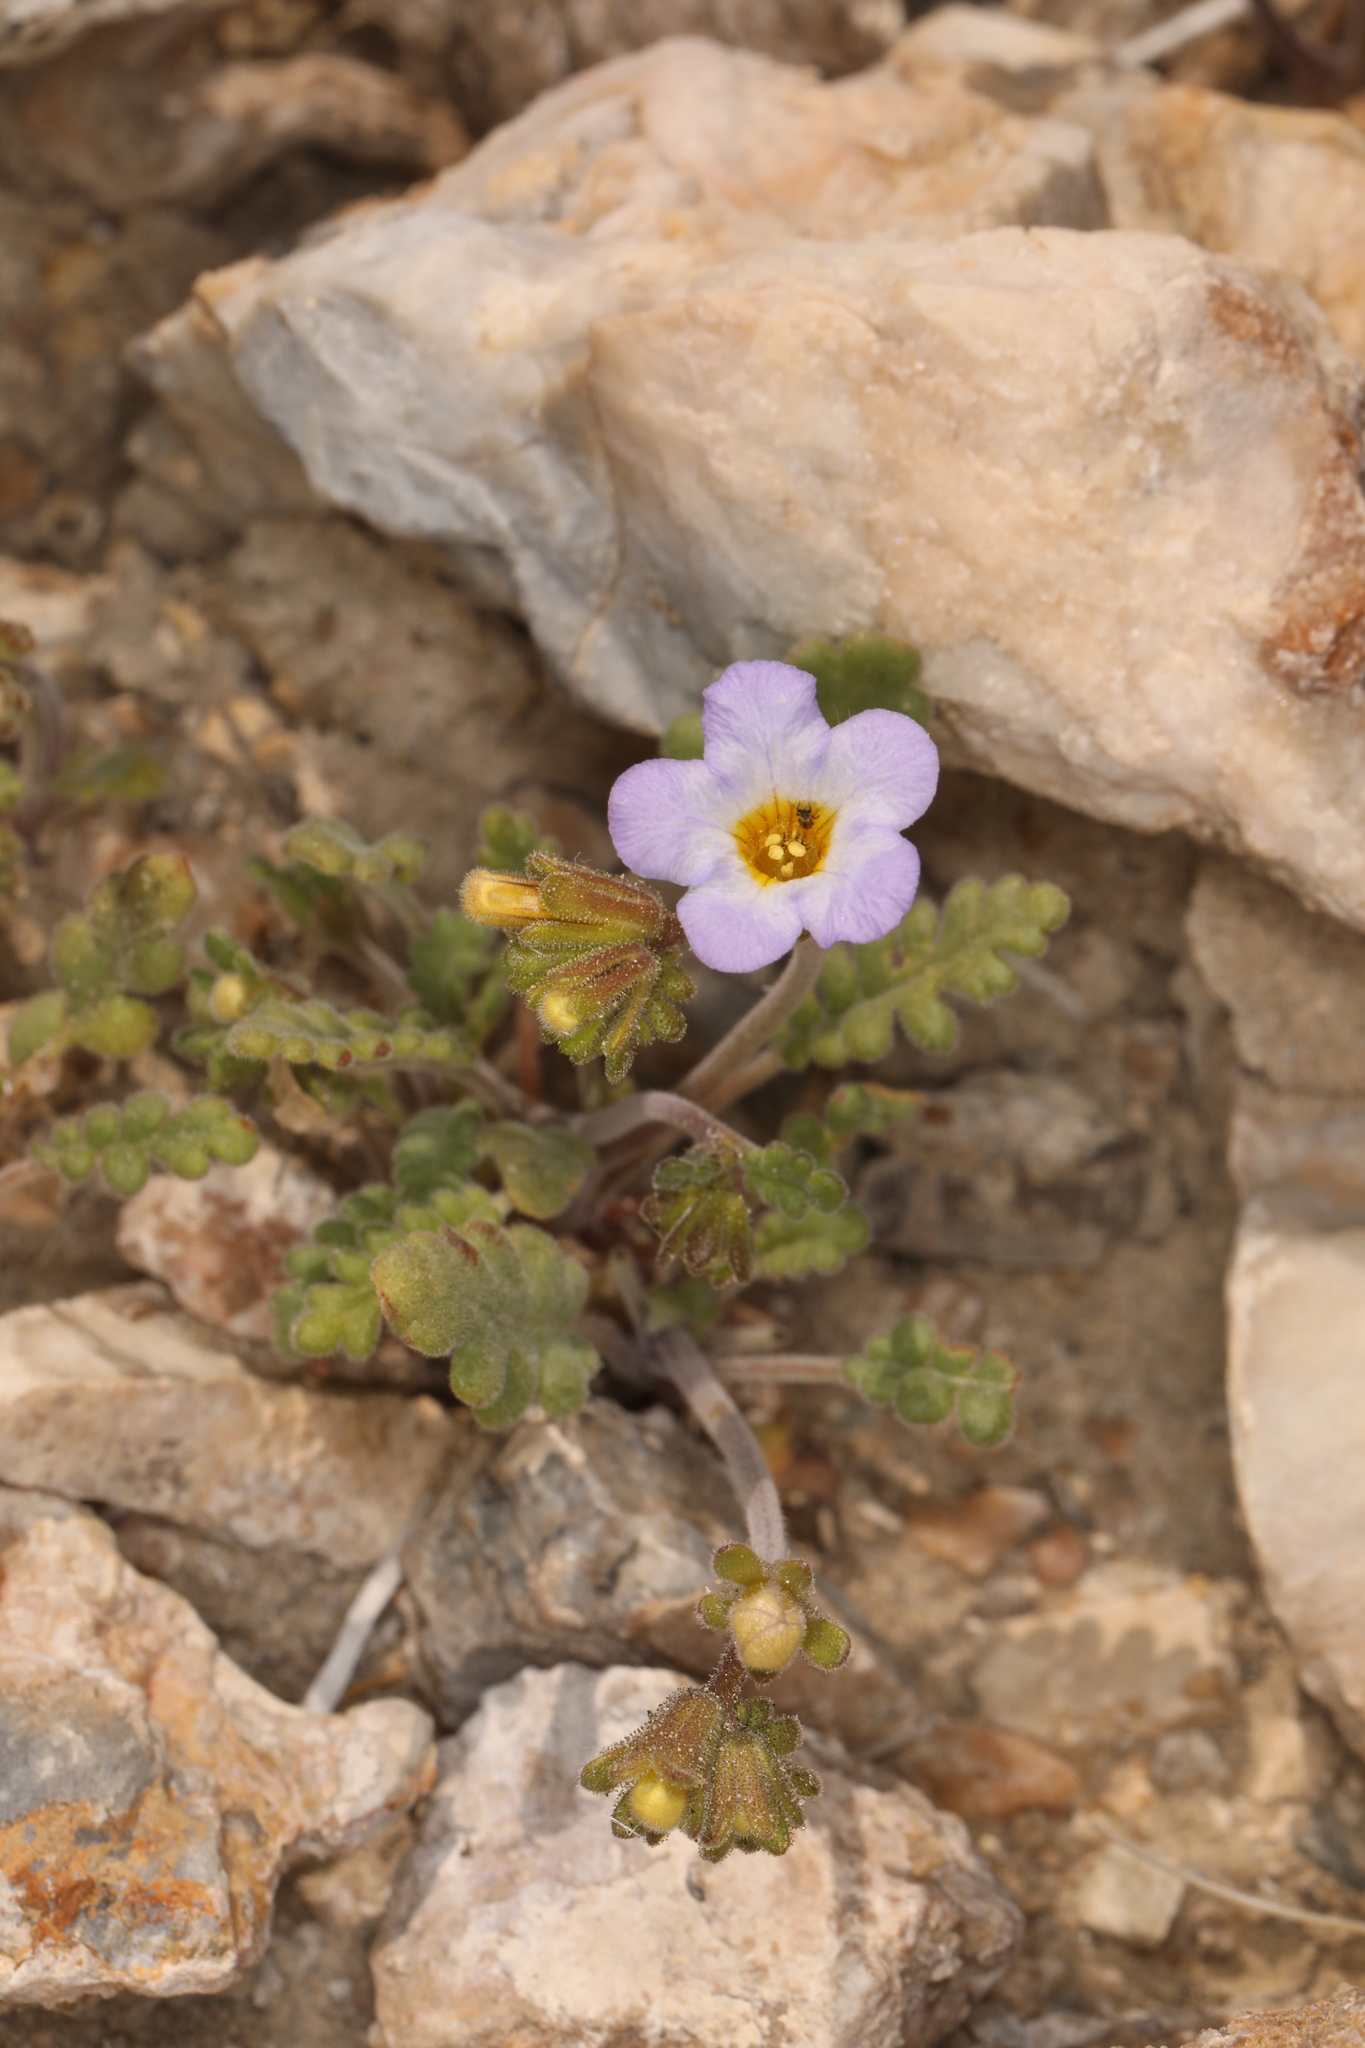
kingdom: Plantae
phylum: Tracheophyta
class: Magnoliopsida
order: Boraginales
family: Hydrophyllaceae
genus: Phacelia
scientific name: Phacelia fremontii
